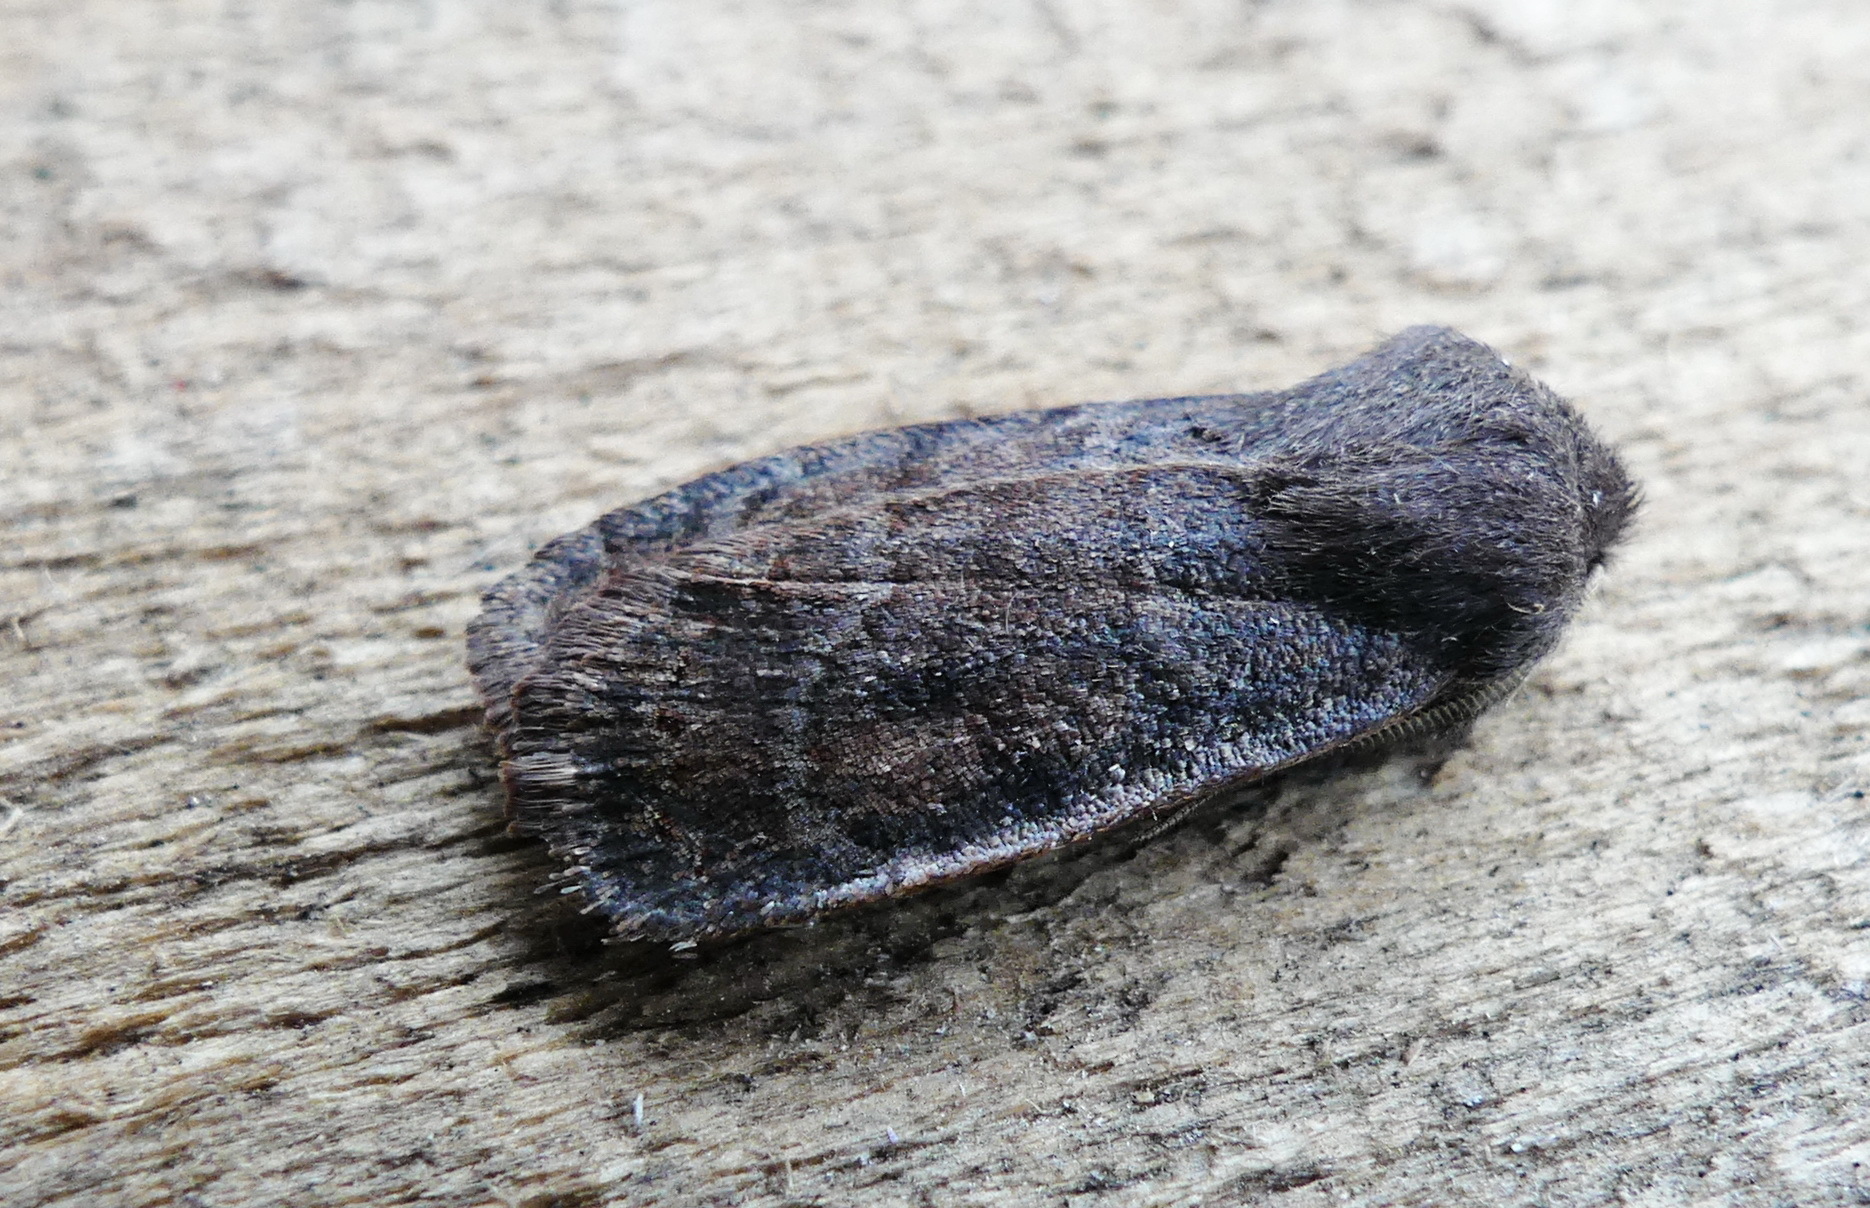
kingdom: Animalia
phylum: Arthropoda
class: Insecta
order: Lepidoptera
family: Noctuidae
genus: Homoglaea
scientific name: Homoglaea hircina
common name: Goat sallow
